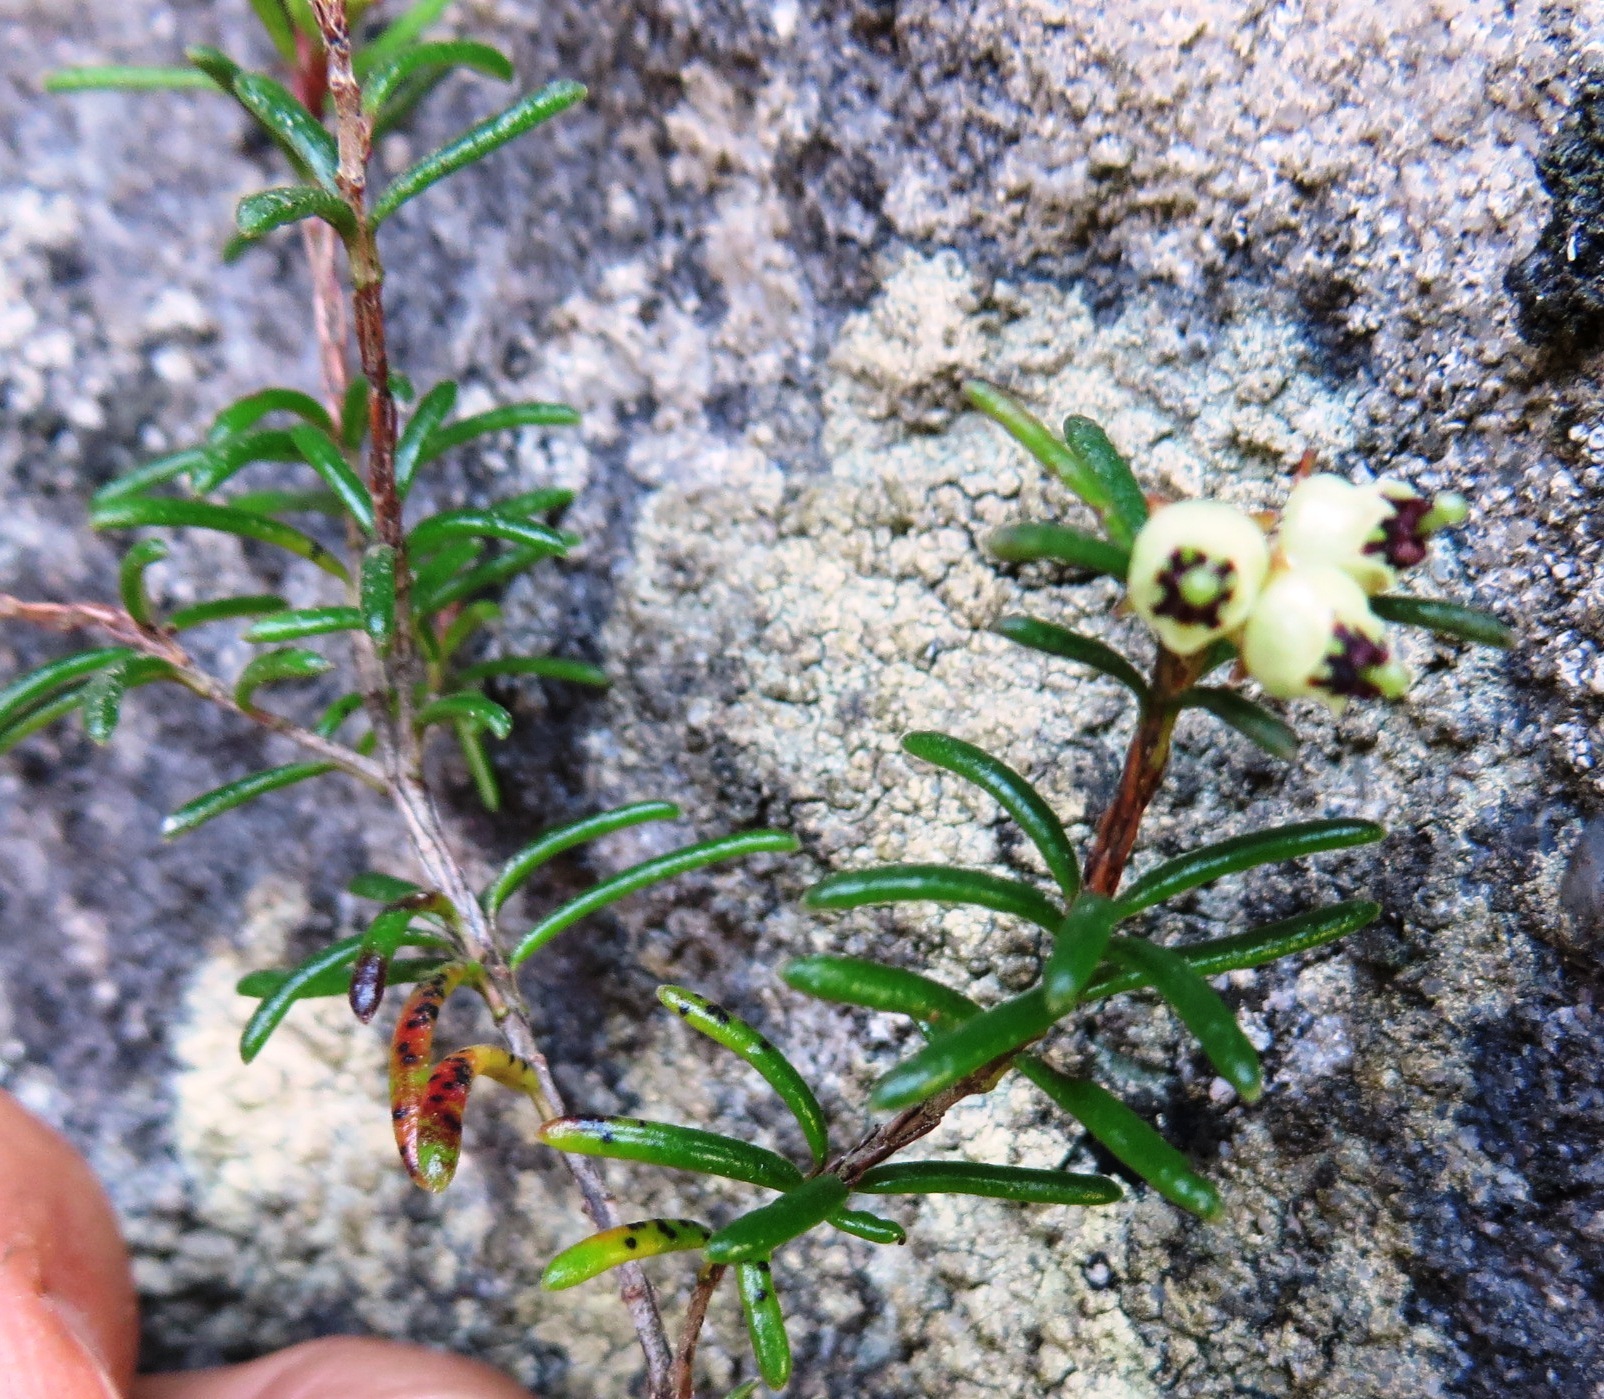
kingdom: Plantae
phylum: Tracheophyta
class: Magnoliopsida
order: Ericales
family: Ericaceae
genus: Erica
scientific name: Erica obtusata
